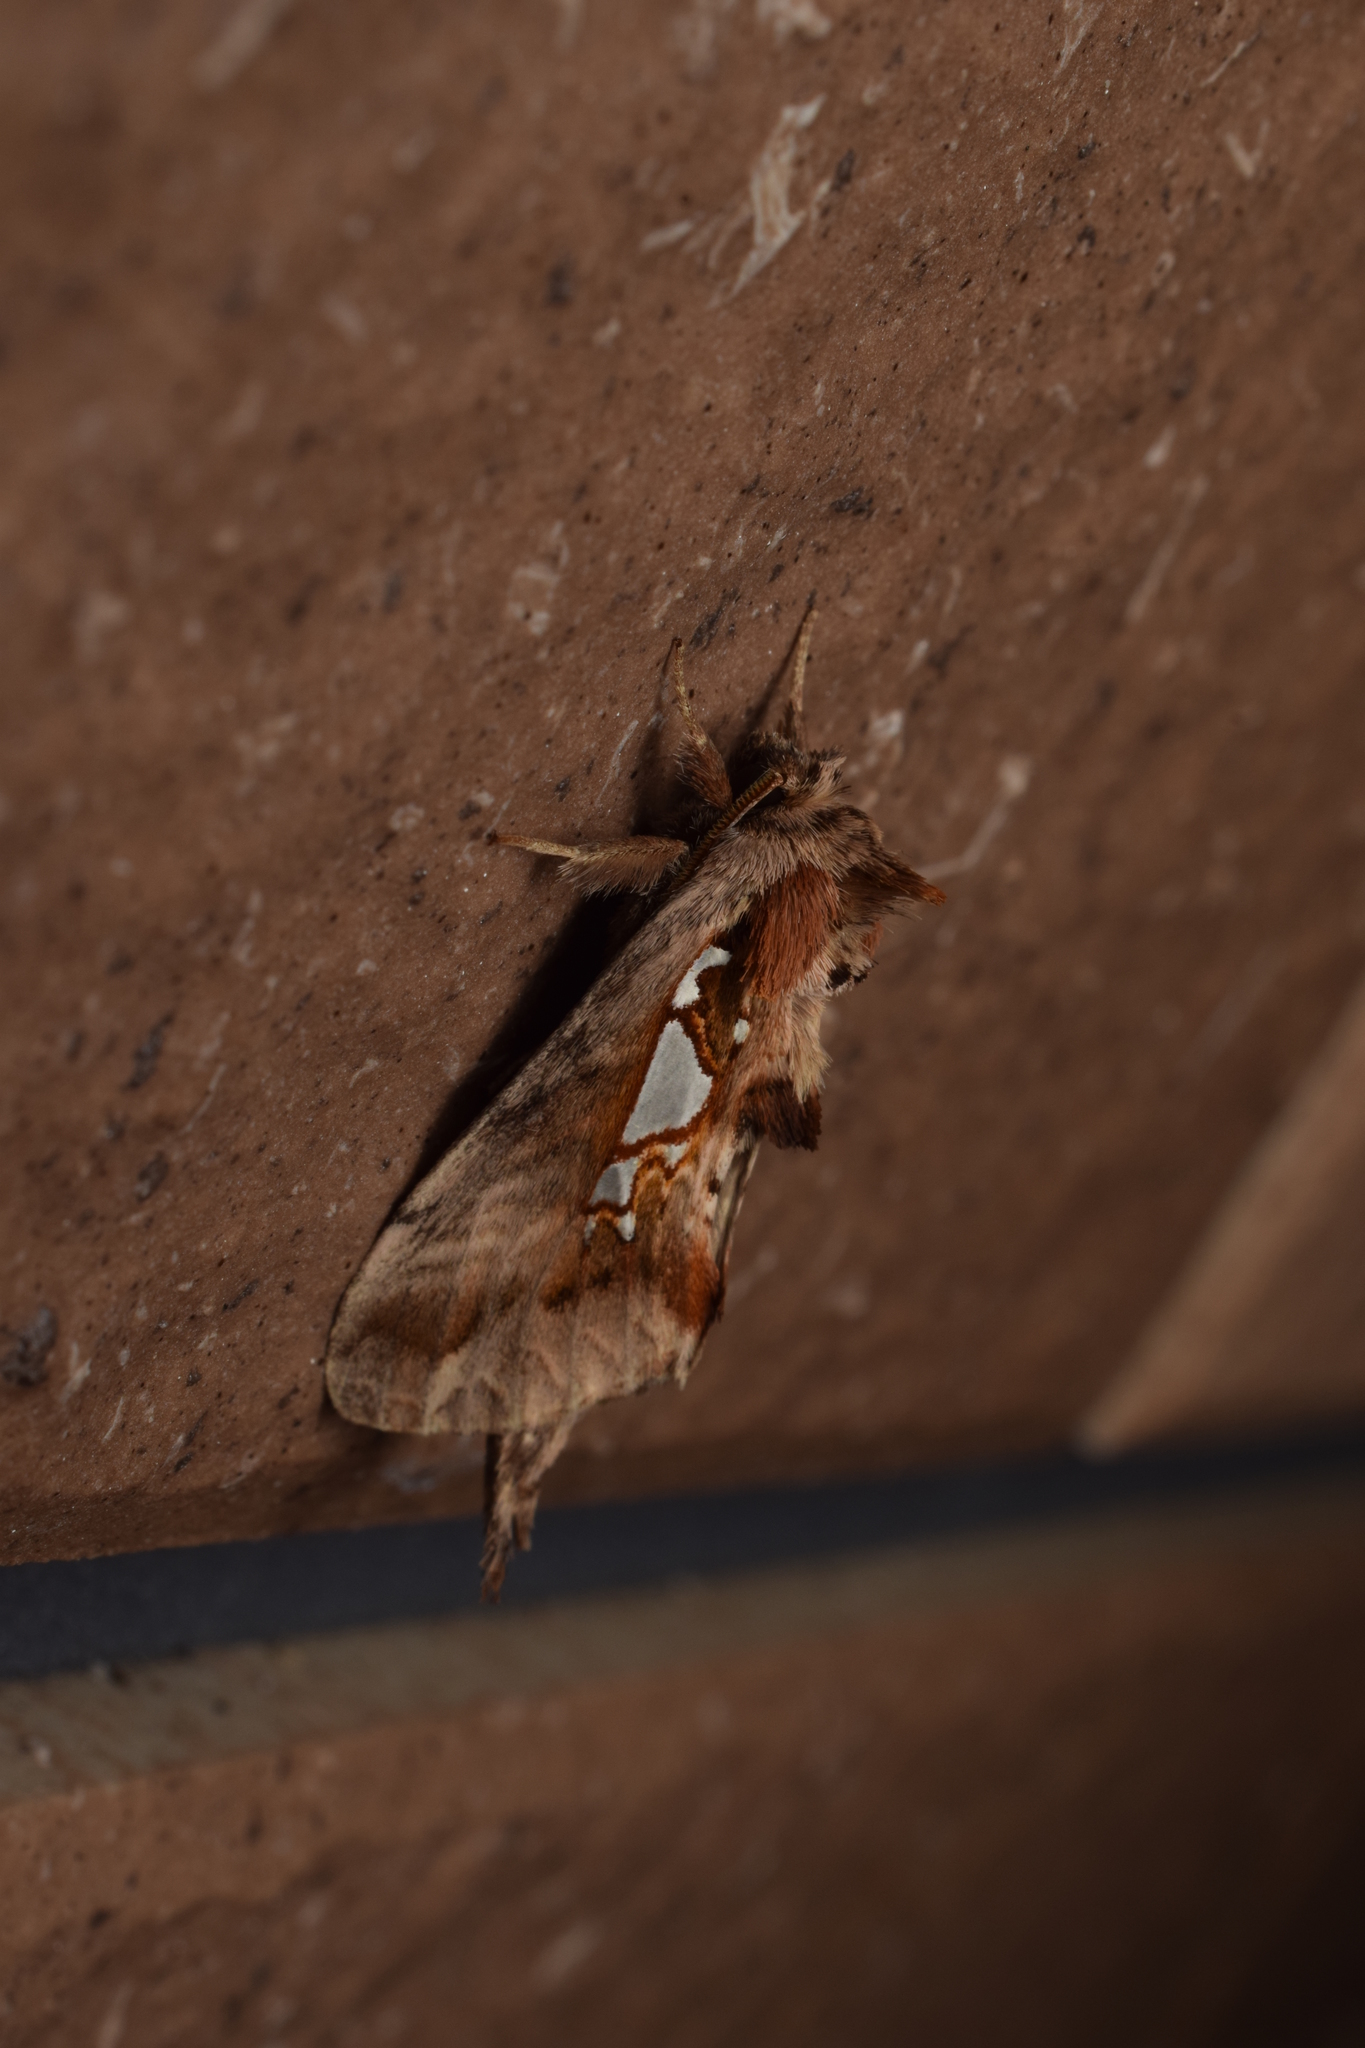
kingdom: Animalia
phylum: Arthropoda
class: Insecta
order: Lepidoptera
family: Notodontidae
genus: Spatalia
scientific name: Spatalia doerriesi
